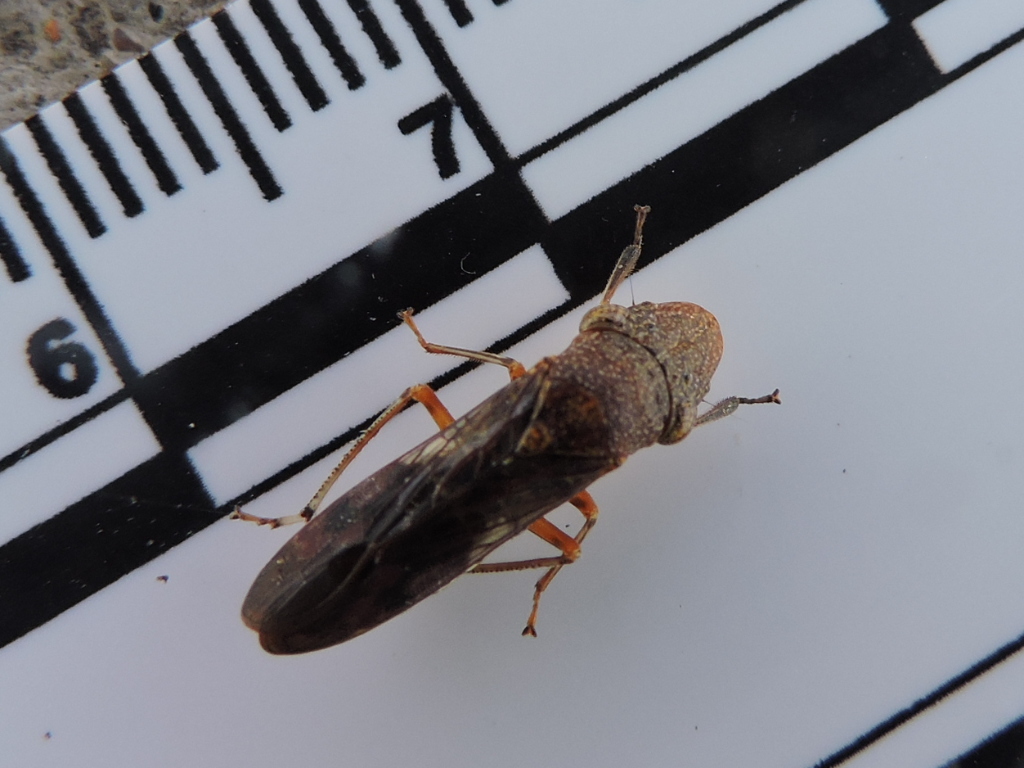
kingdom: Animalia
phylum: Arthropoda
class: Insecta
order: Hemiptera
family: Cicadellidae
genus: Homalodisca
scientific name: Homalodisca vitripennis
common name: Glassy-winged sharpshooter
